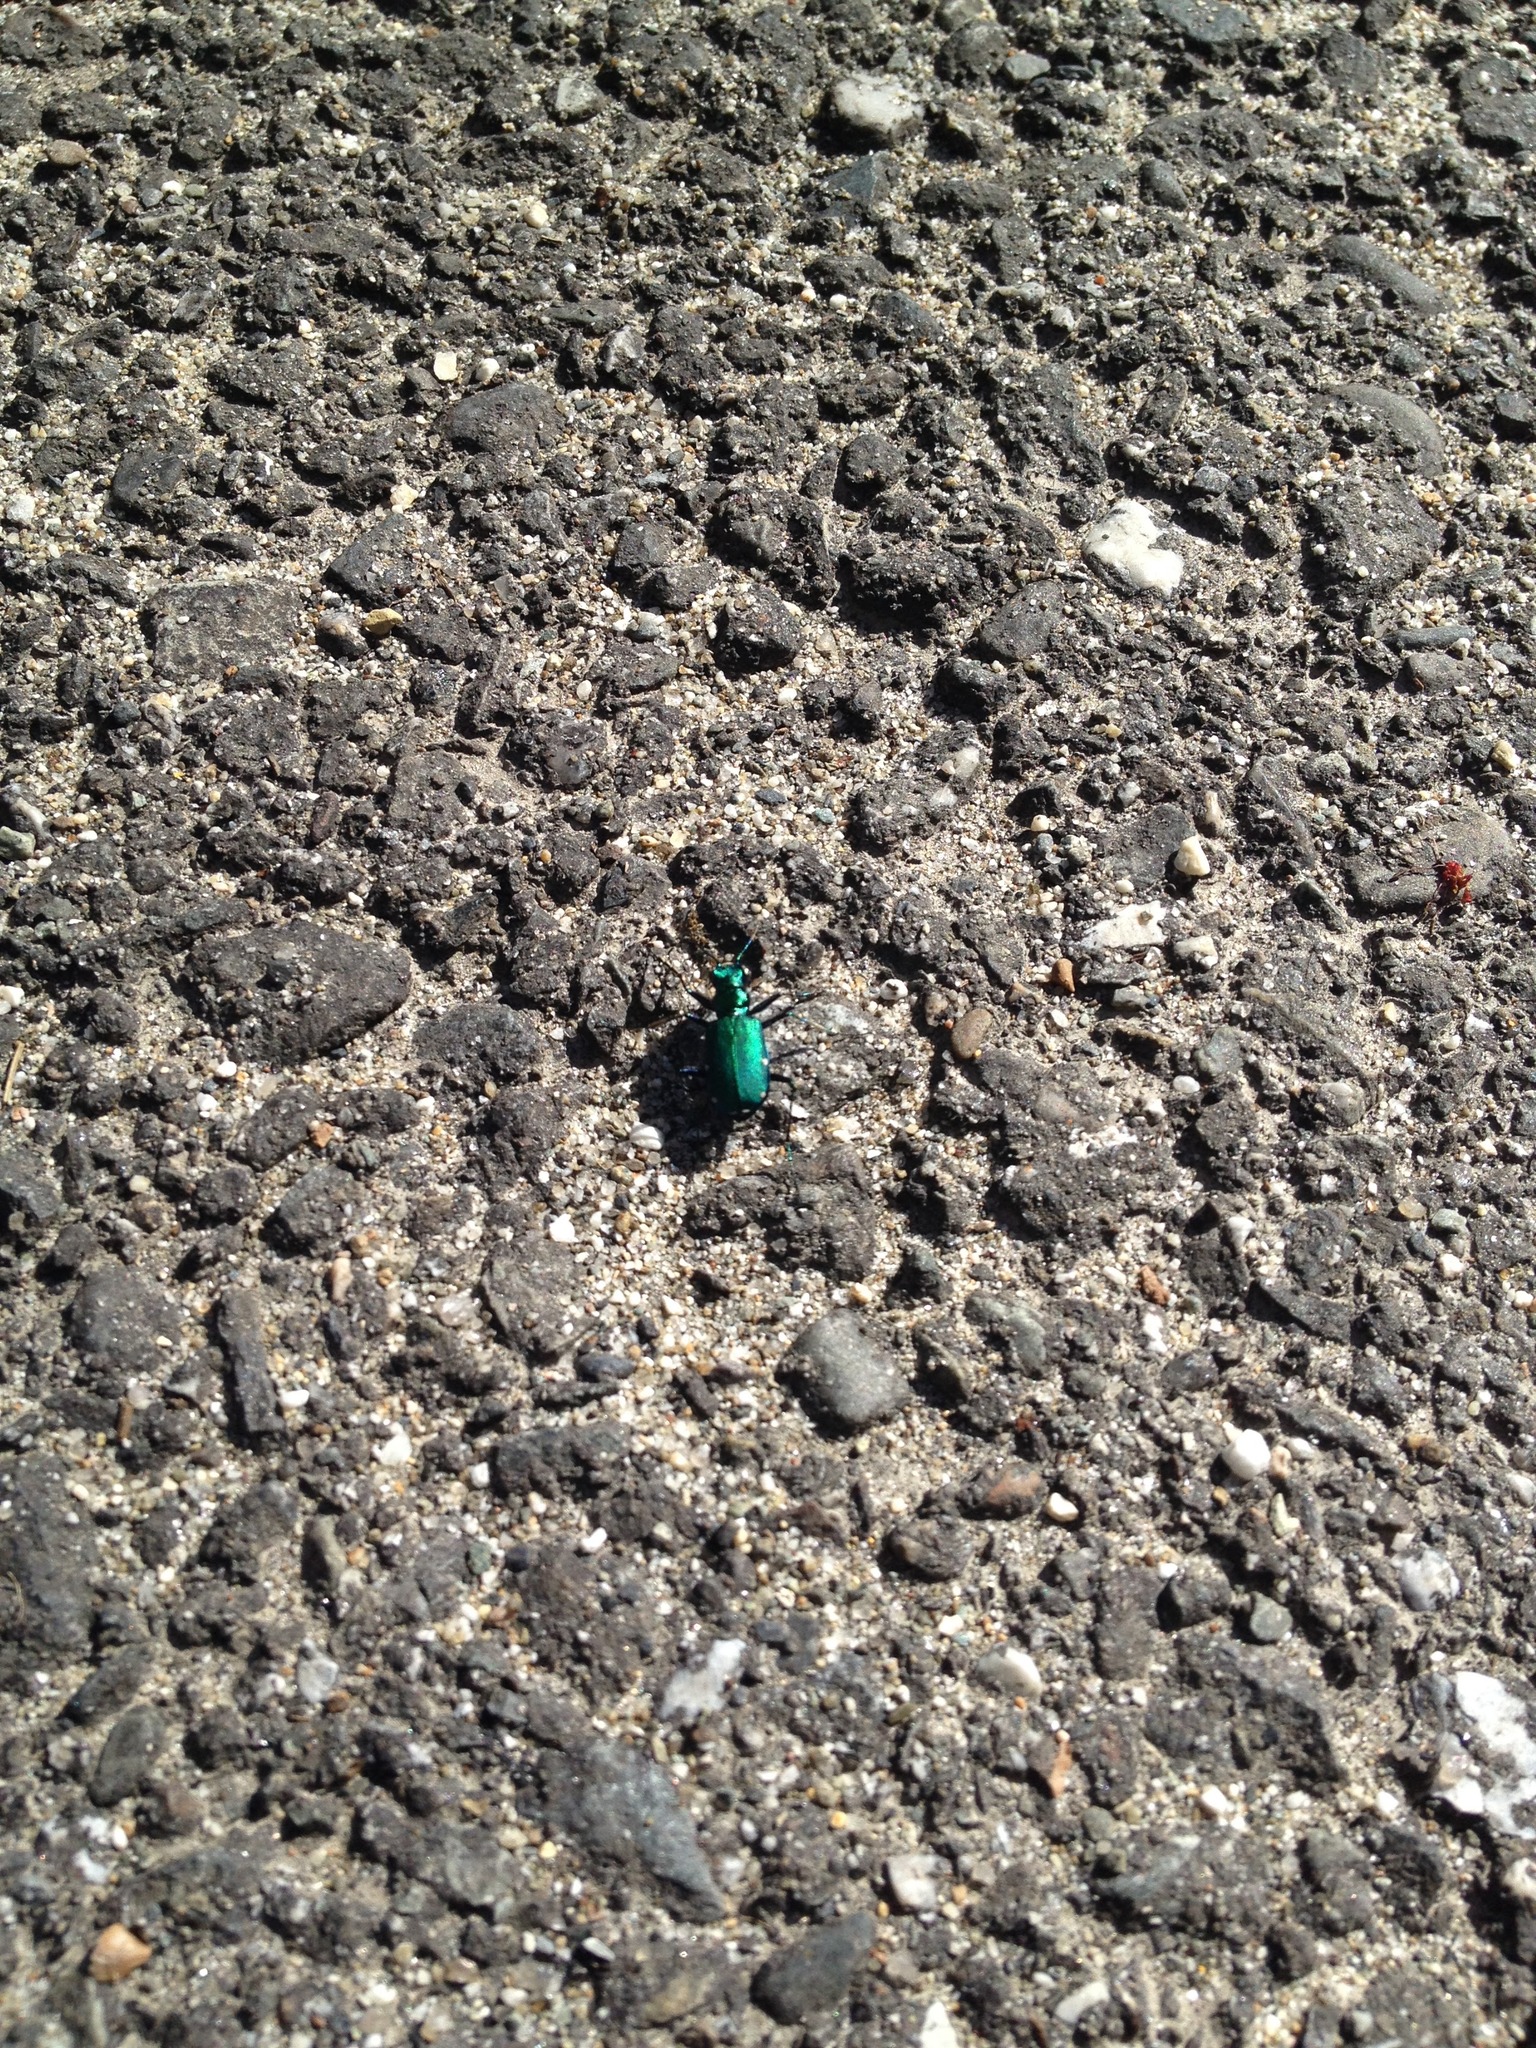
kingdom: Animalia
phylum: Arthropoda
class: Insecta
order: Coleoptera
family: Carabidae
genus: Cicindela
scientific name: Cicindela sexguttata
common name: Six-spotted tiger beetle
